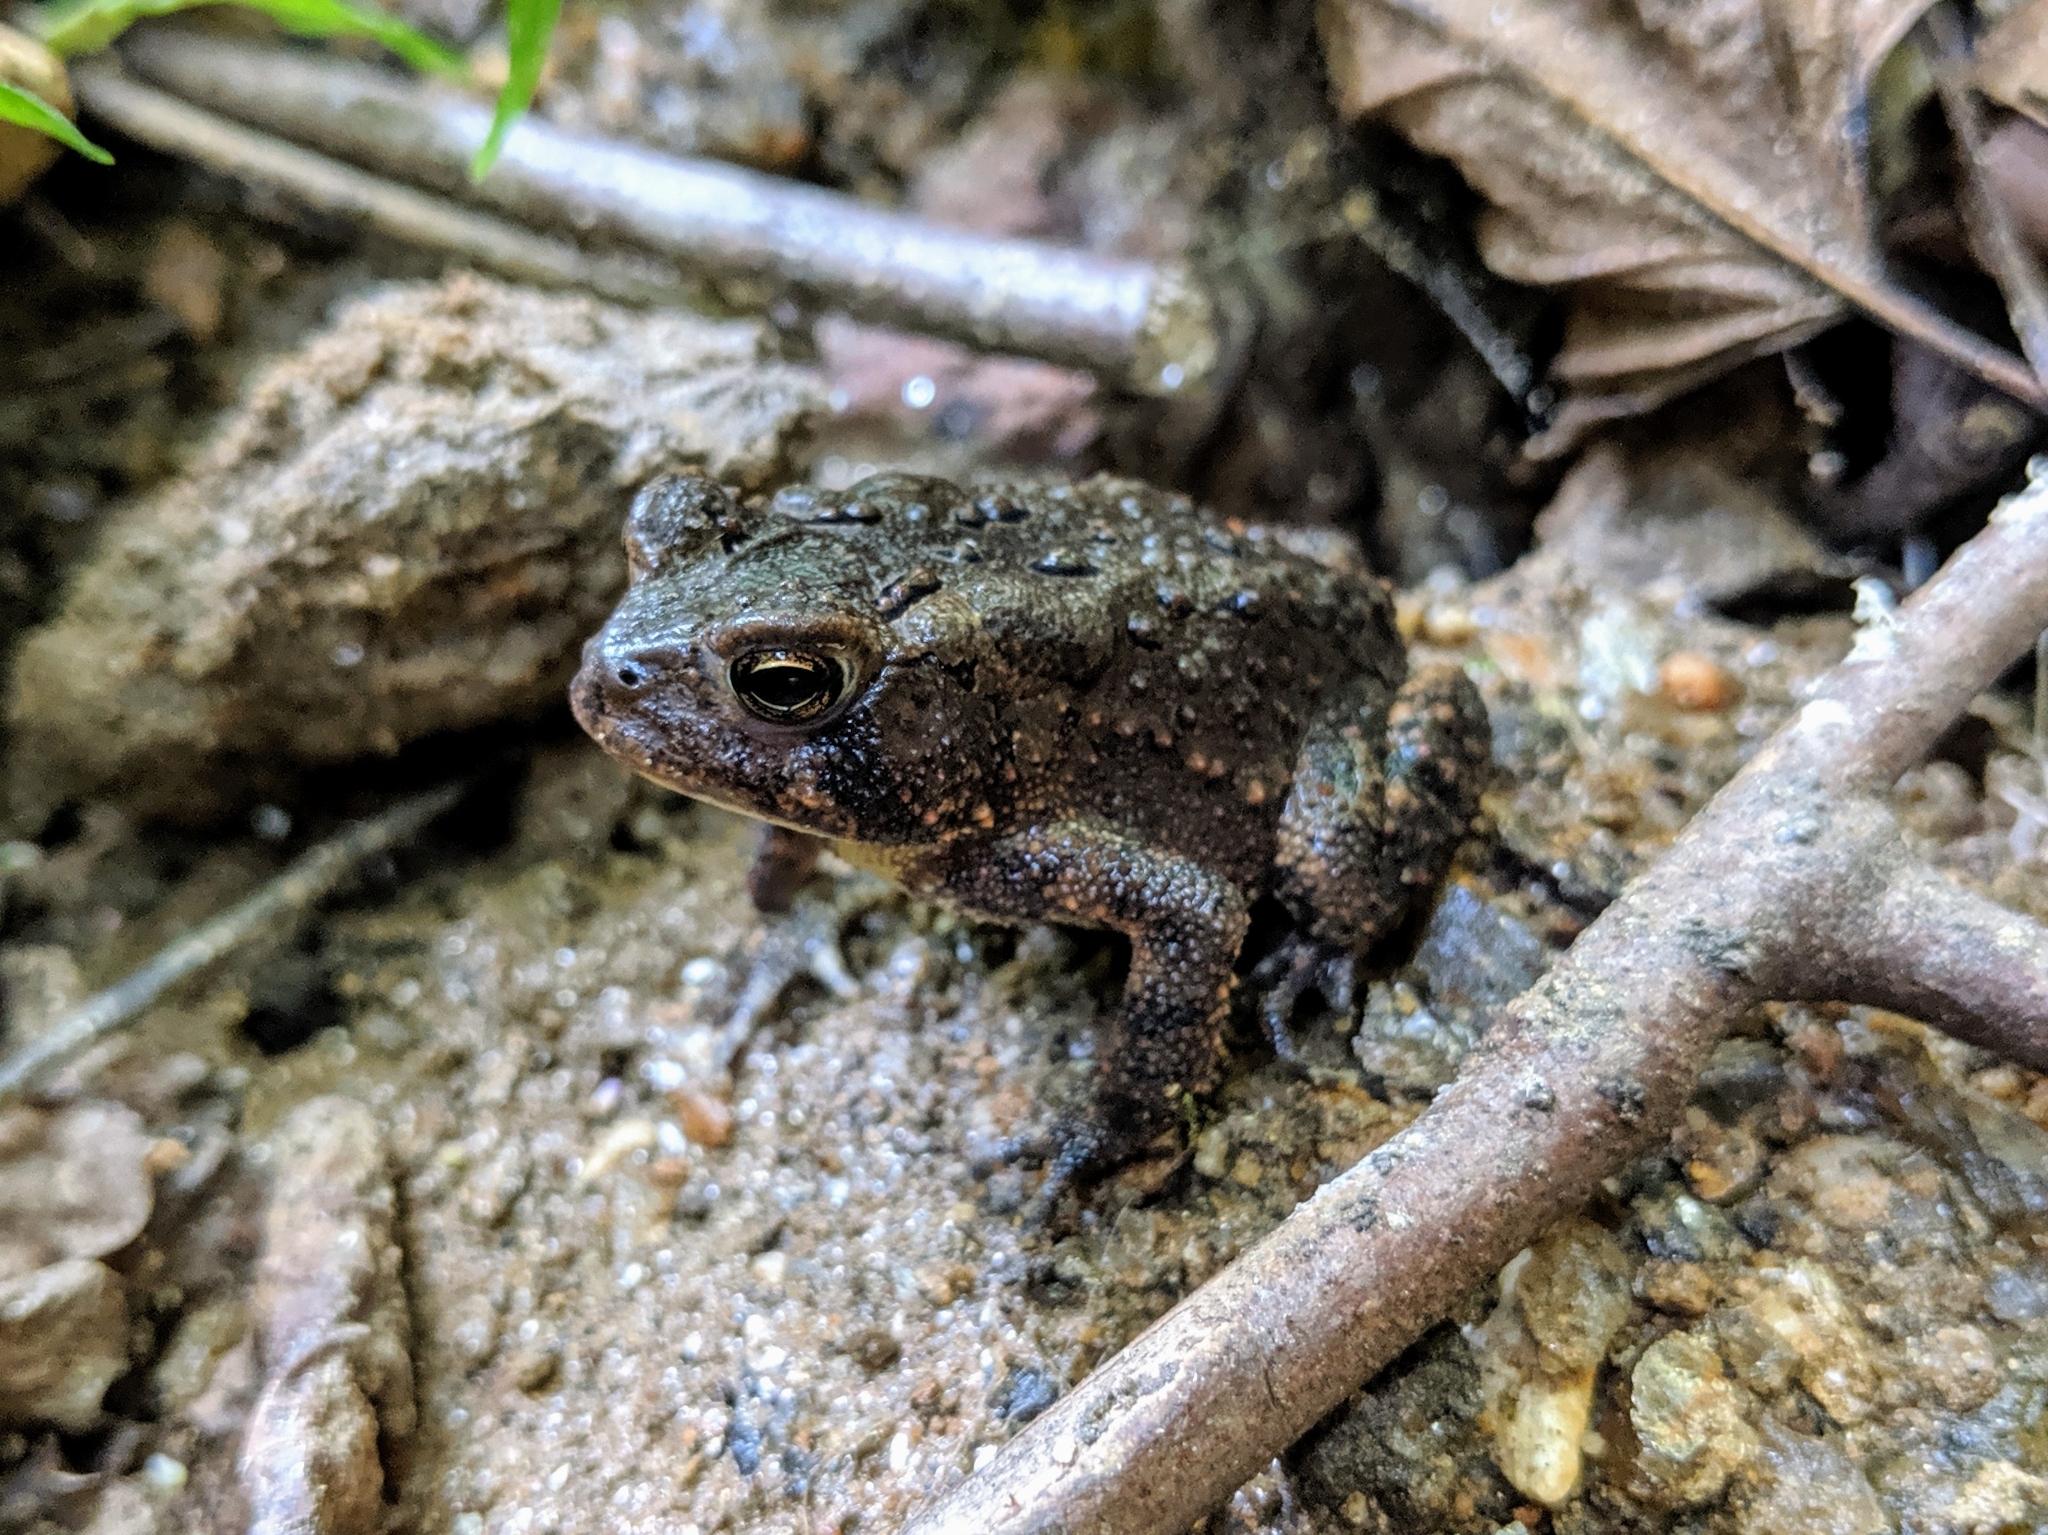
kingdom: Animalia
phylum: Chordata
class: Amphibia
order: Anura
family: Bufonidae
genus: Anaxyrus
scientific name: Anaxyrus americanus
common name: American toad
